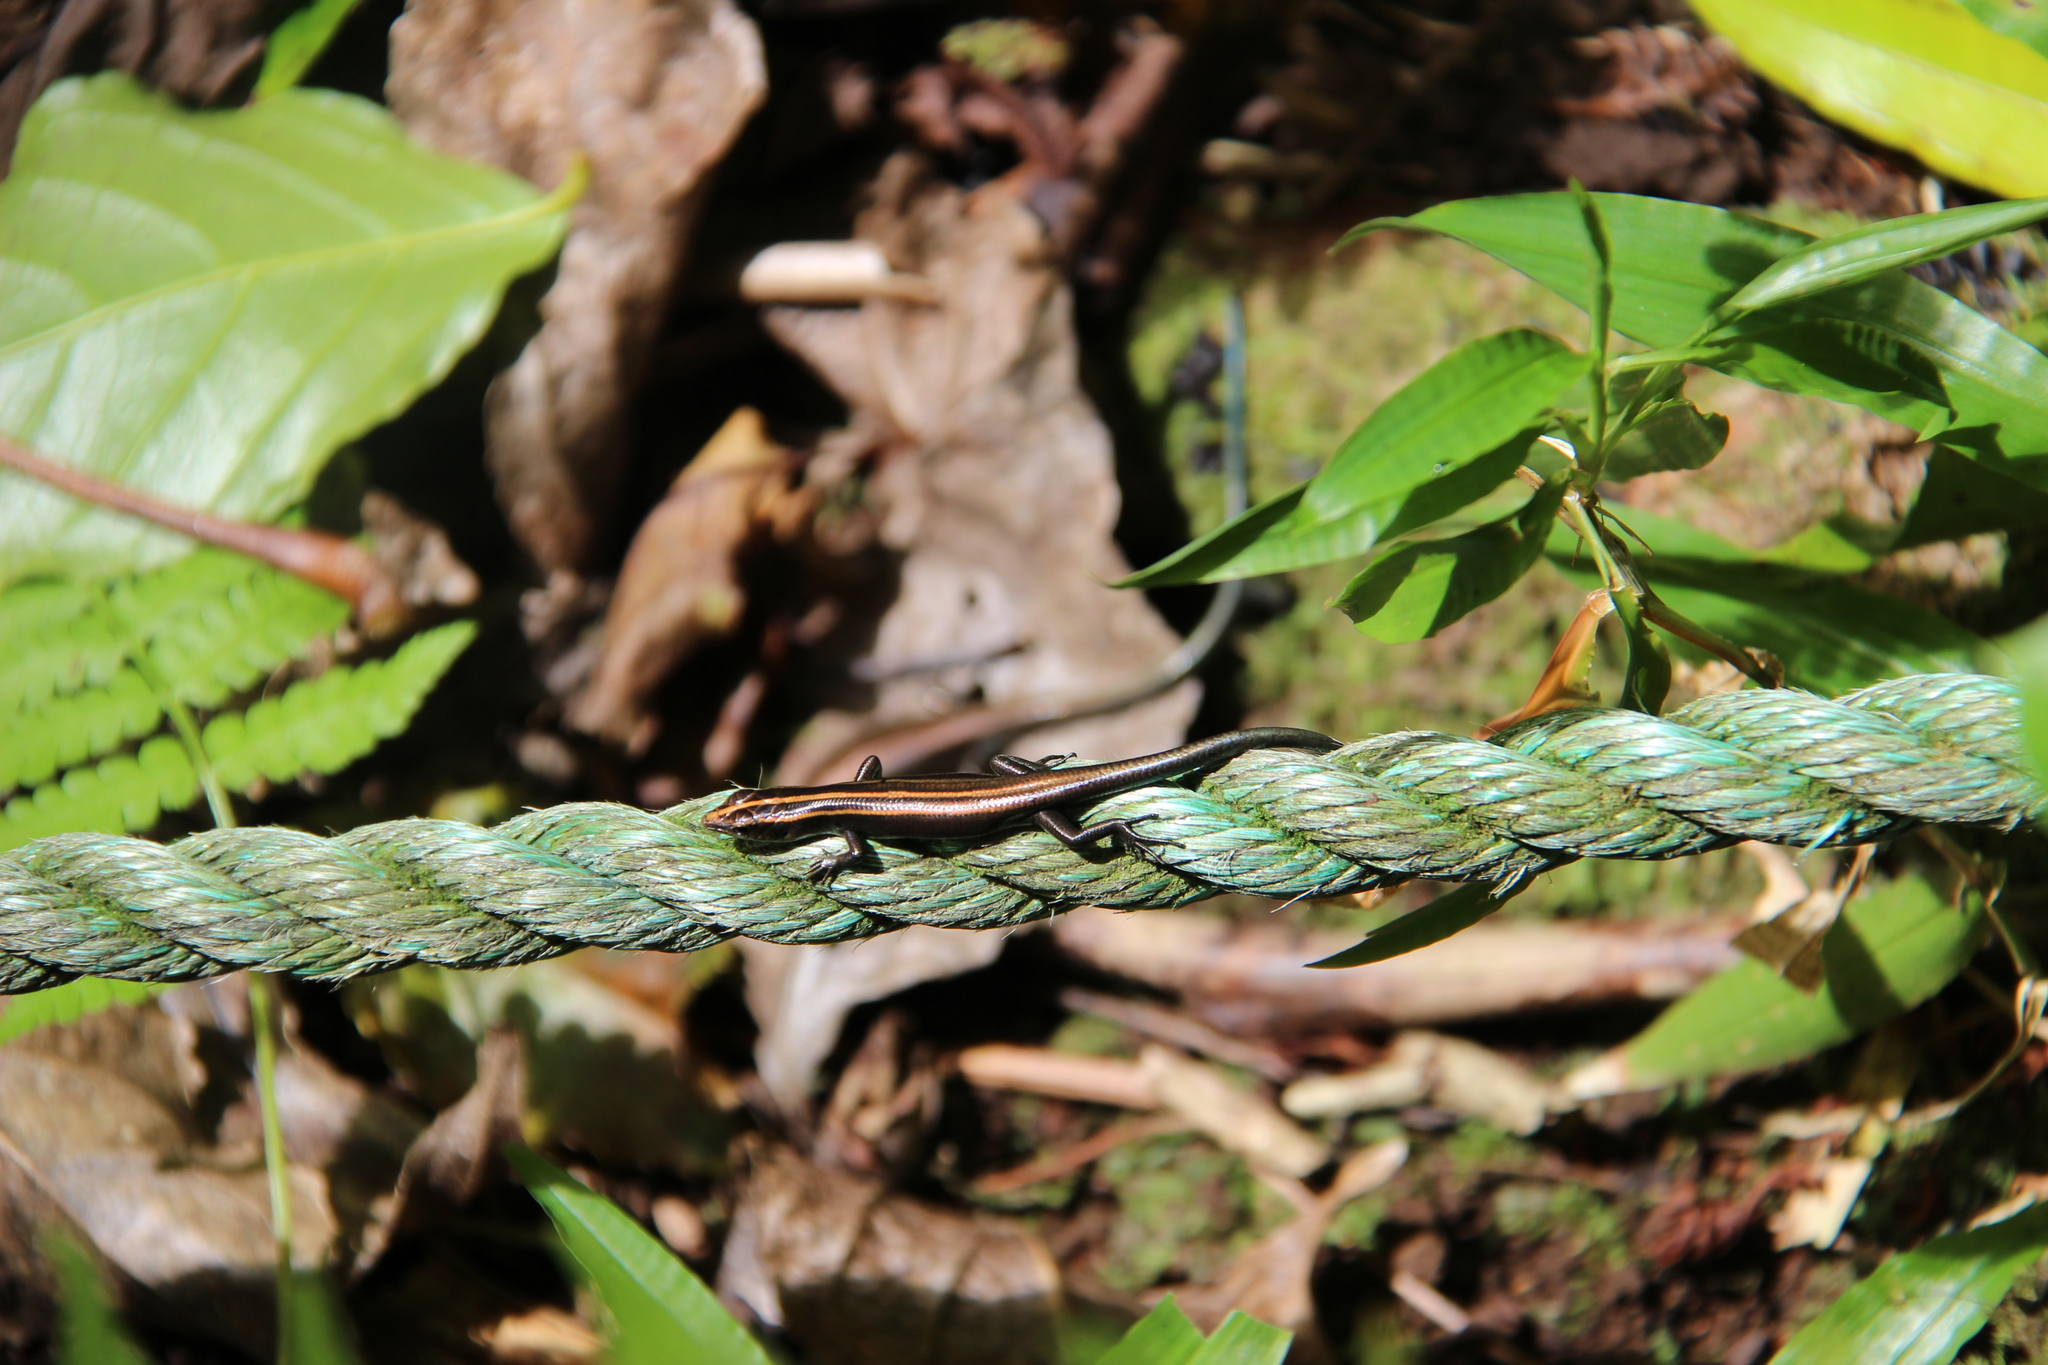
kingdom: Animalia
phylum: Chordata
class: Squamata
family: Scincidae
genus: Emoia
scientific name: Emoia impar
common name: Azure-tailed skink
